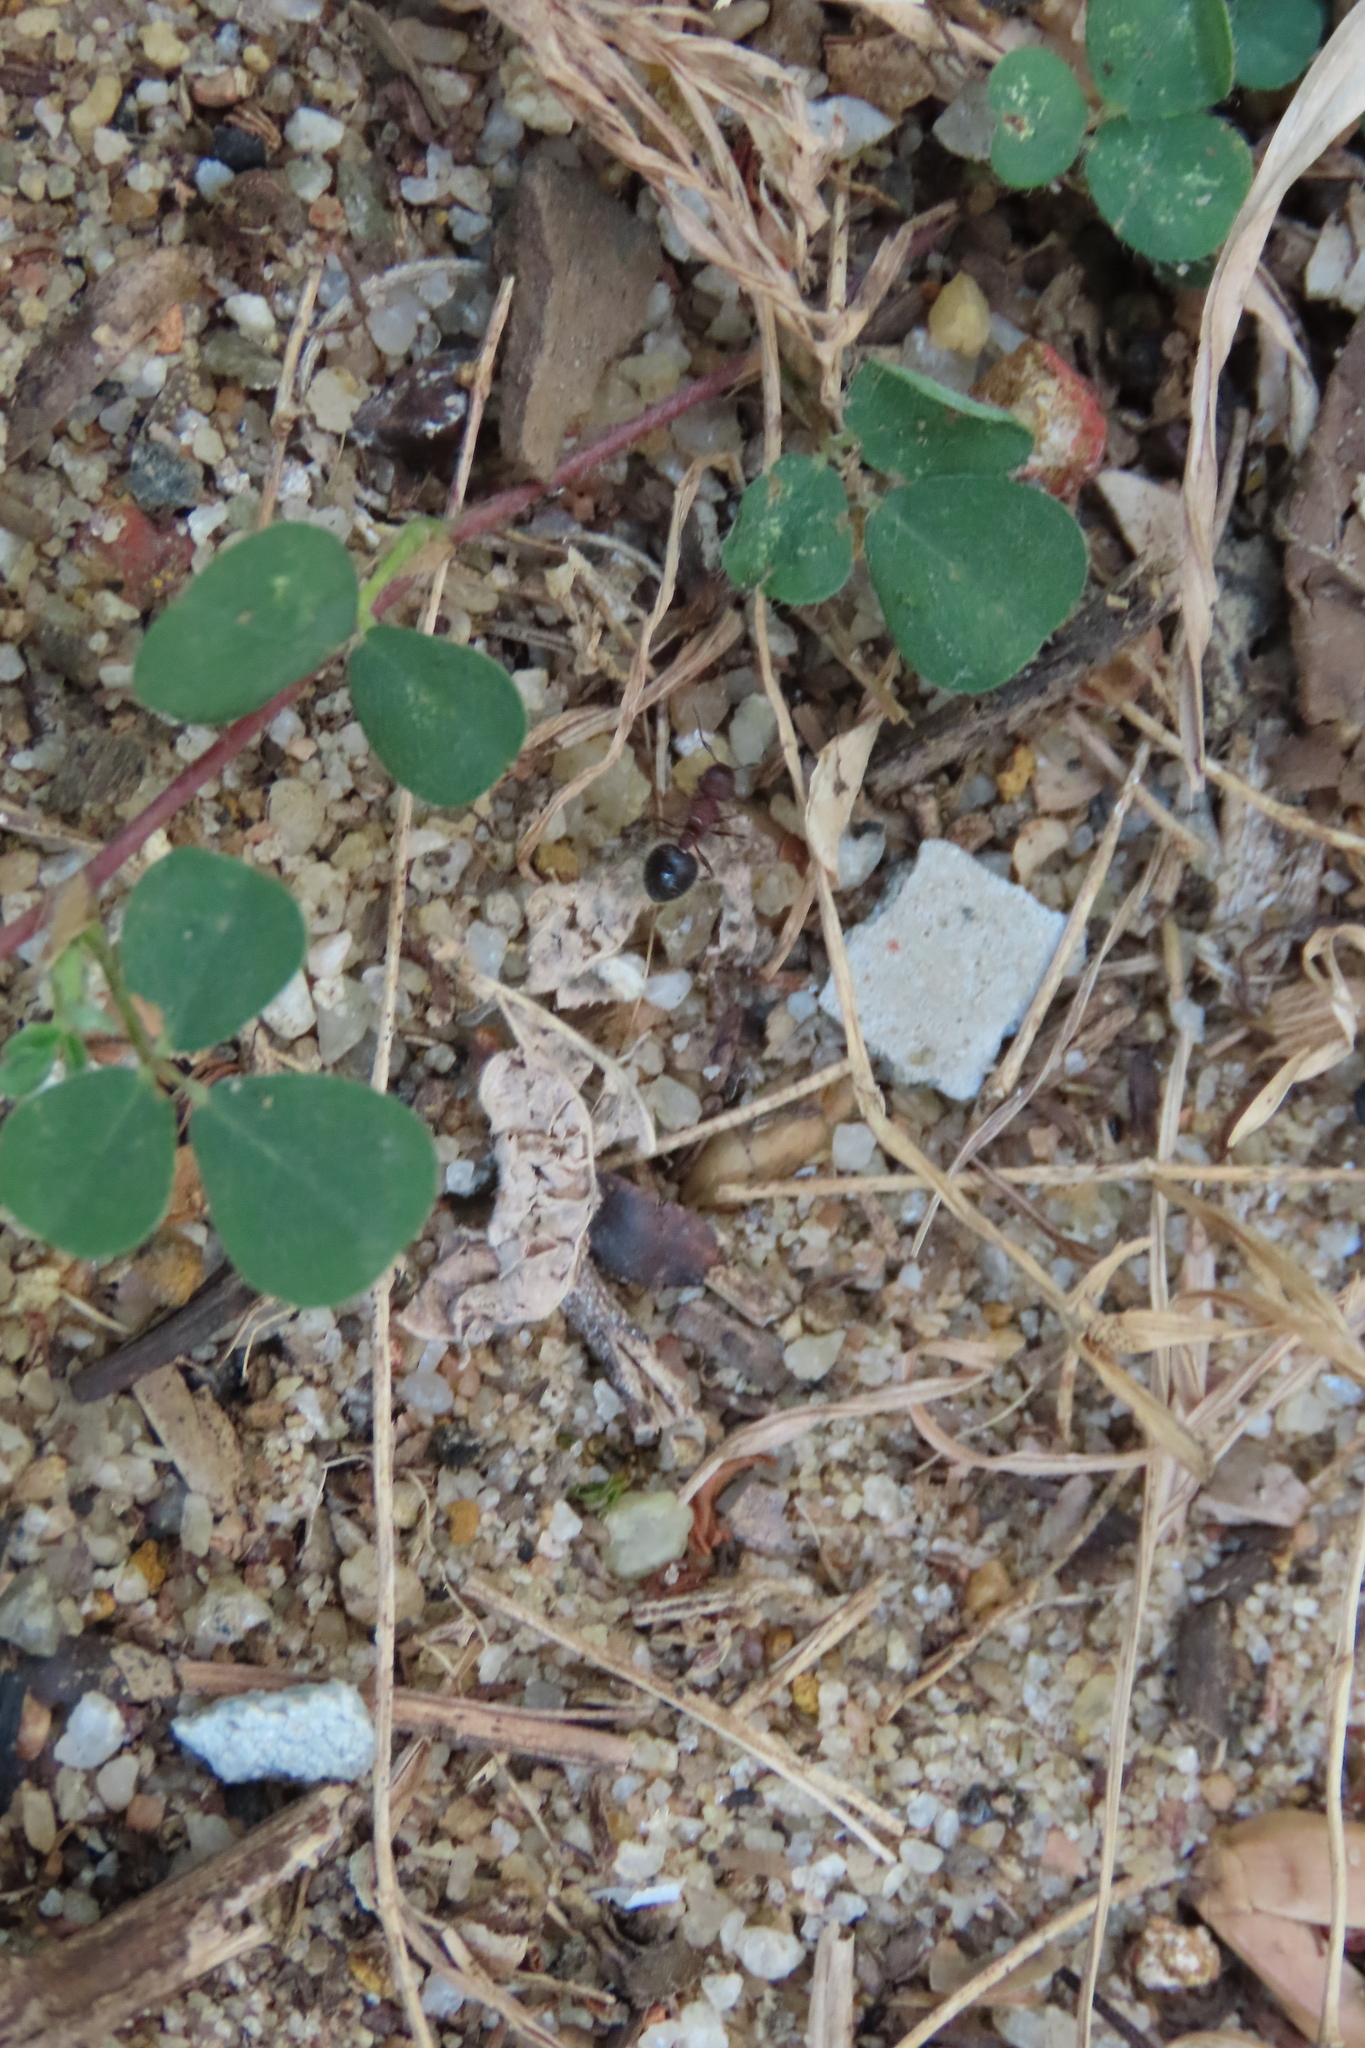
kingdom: Animalia
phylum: Arthropoda
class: Insecta
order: Hymenoptera
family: Formicidae
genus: Meranoplus
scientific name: Meranoplus bicolor
